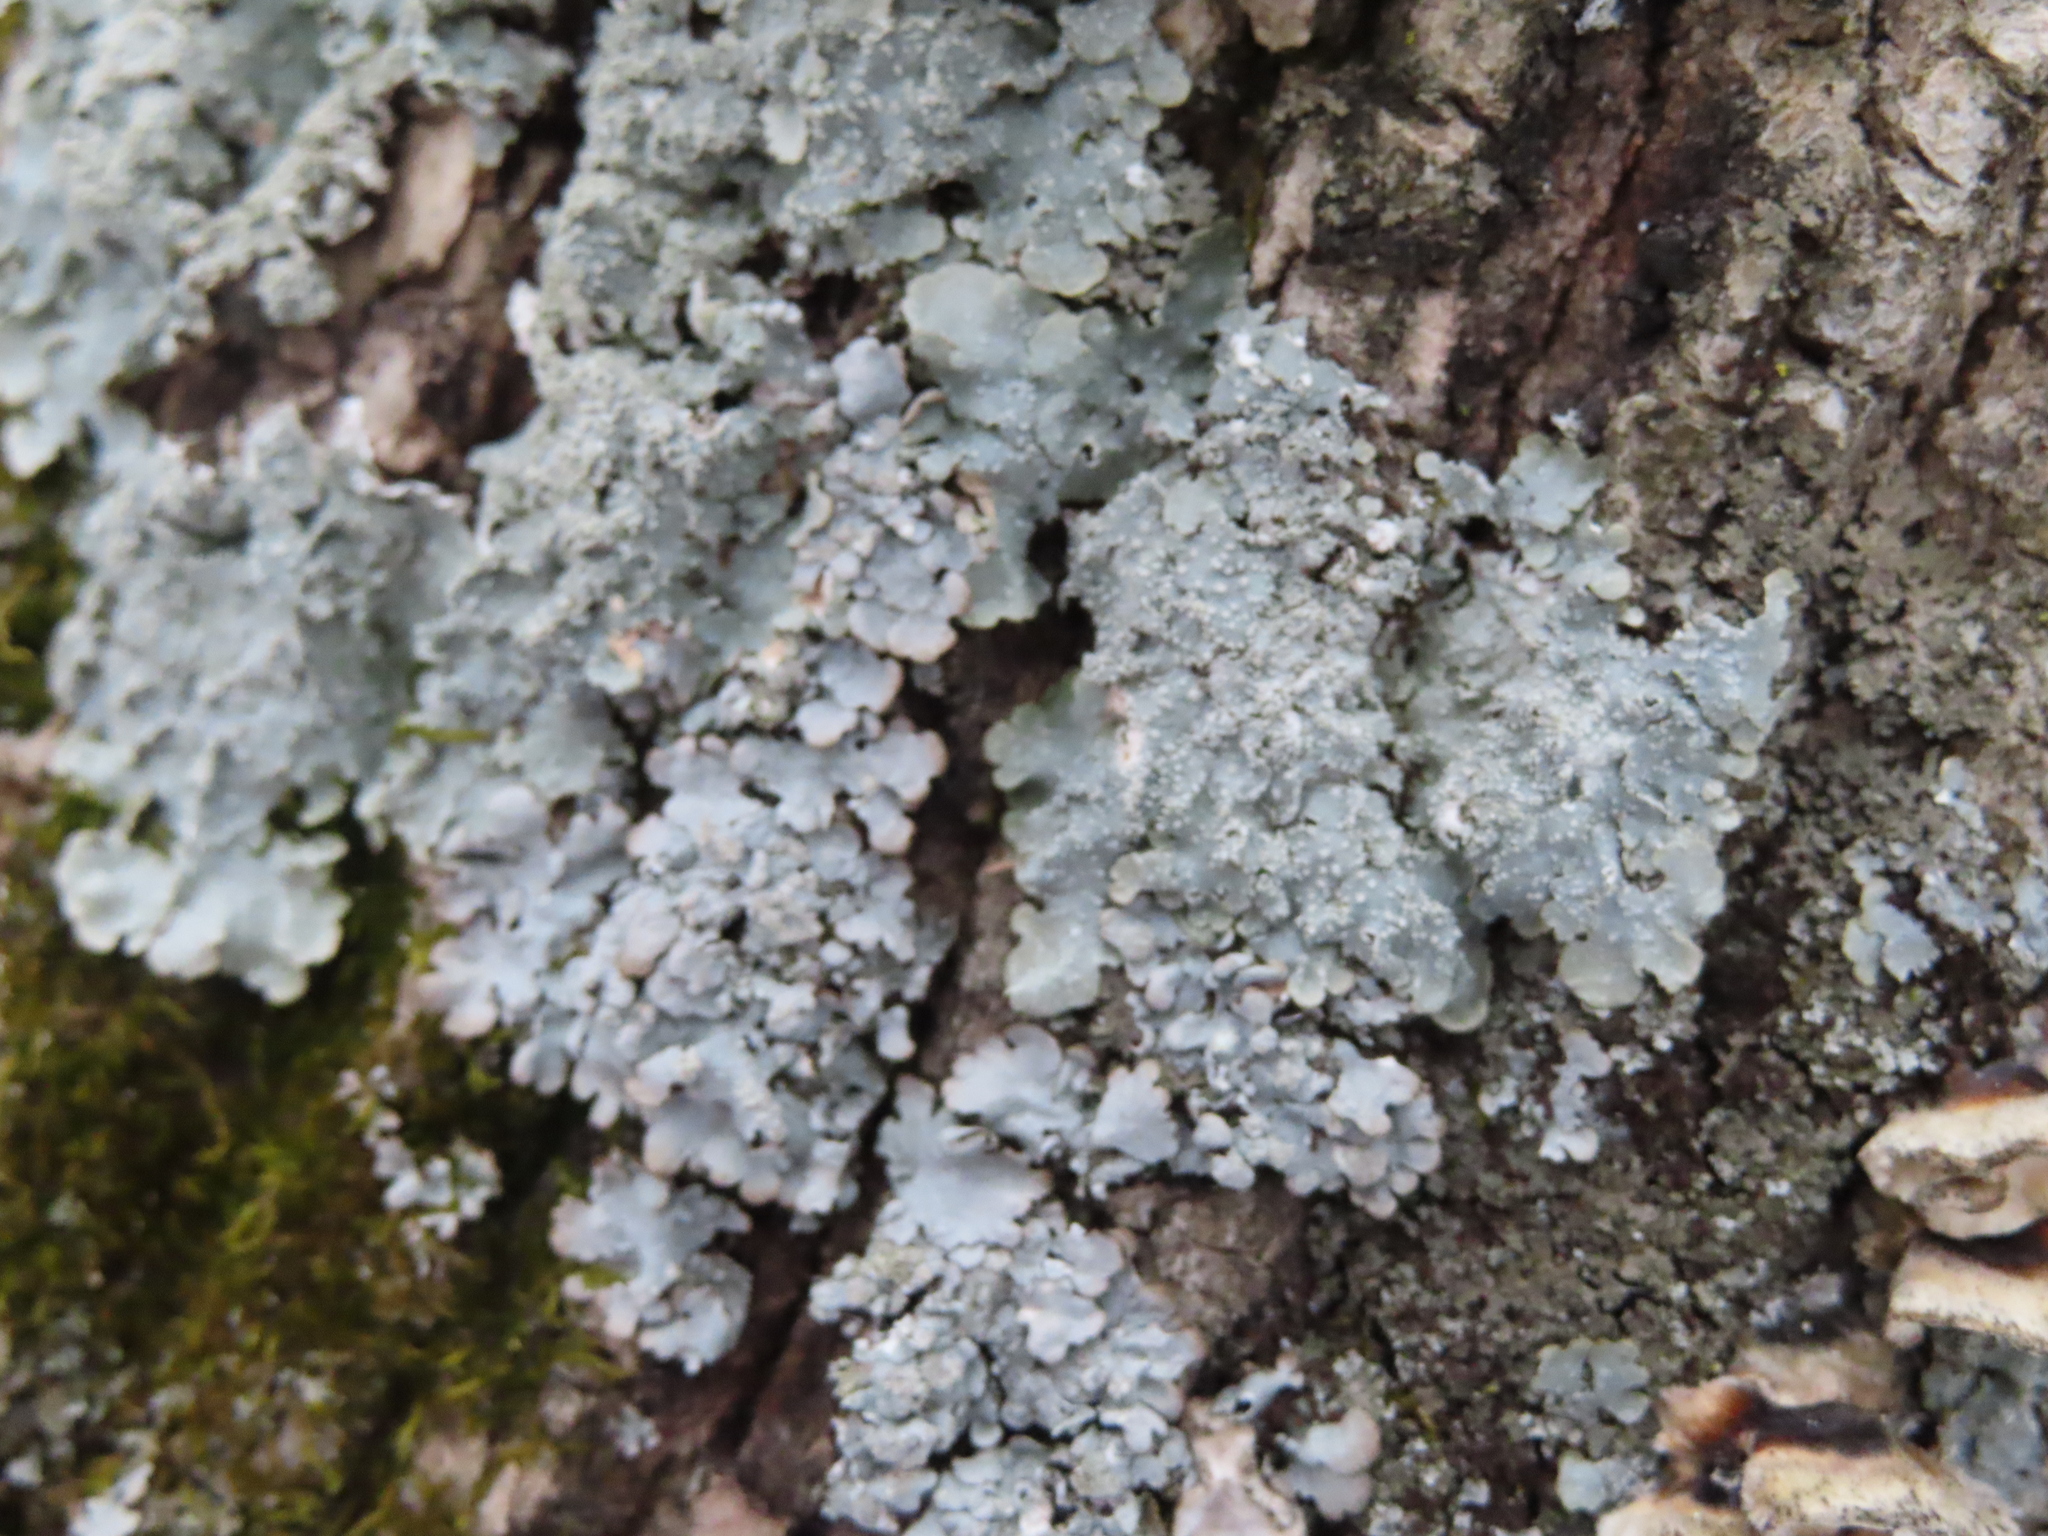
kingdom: Fungi
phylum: Ascomycota
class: Lecanoromycetes
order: Lecanorales
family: Parmeliaceae
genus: Punctelia
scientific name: Punctelia missouriensis
